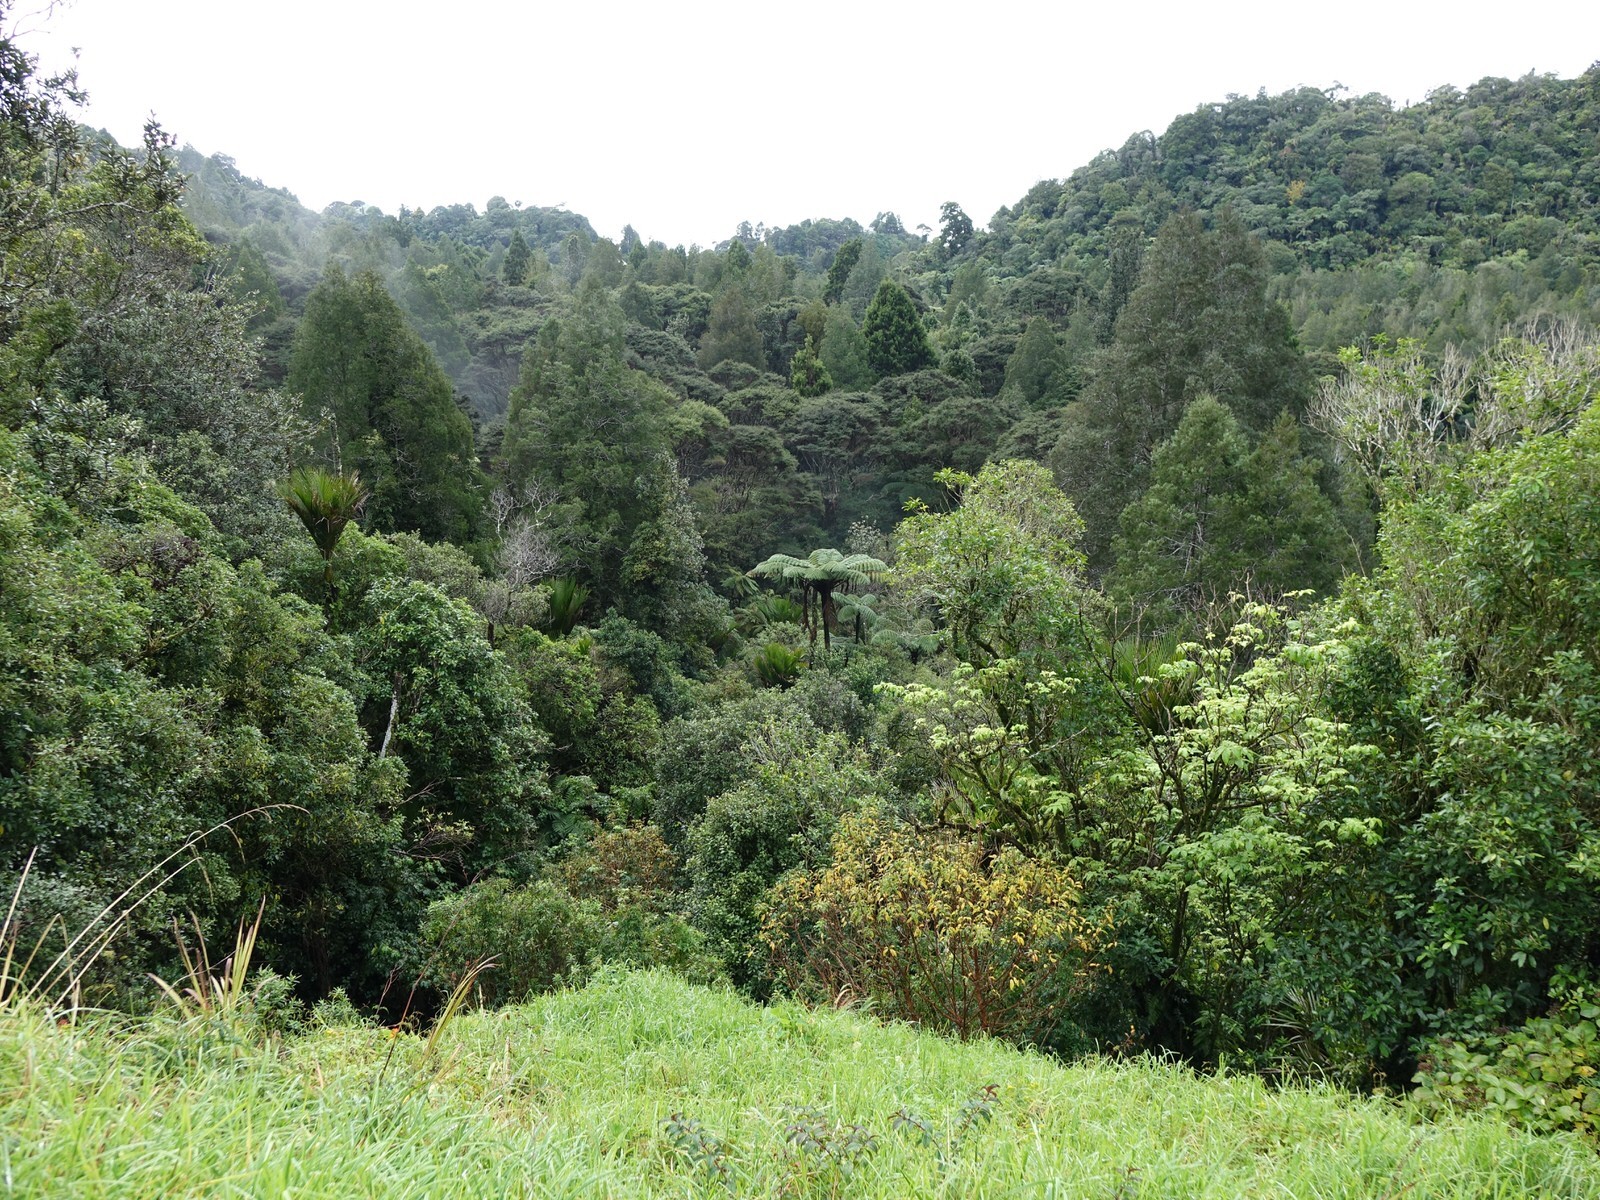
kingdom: Plantae
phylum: Tracheophyta
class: Magnoliopsida
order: Myrtales
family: Onagraceae
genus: Fuchsia
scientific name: Fuchsia excorticata
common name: Tree fuchsia
